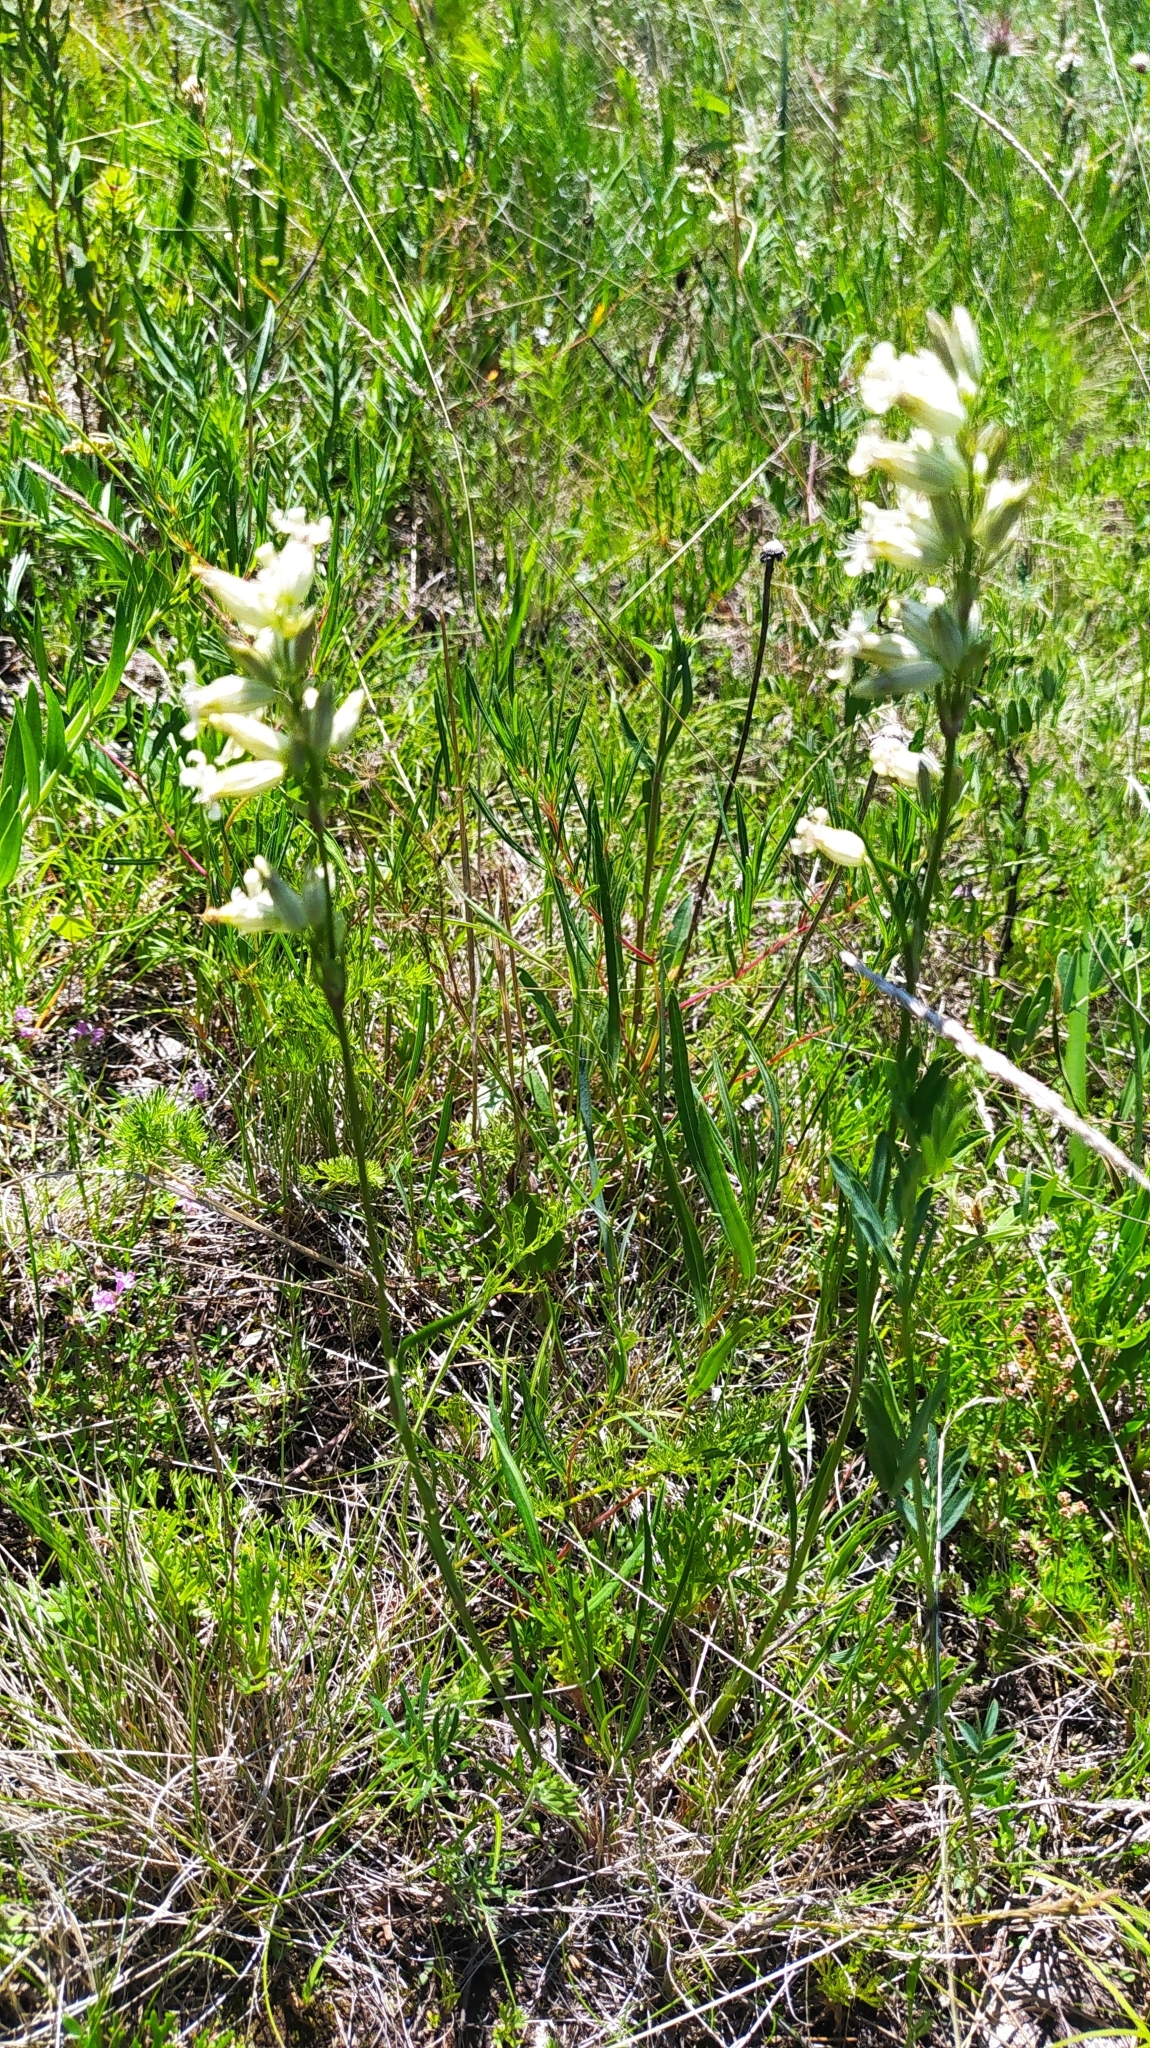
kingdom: Plantae
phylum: Tracheophyta
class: Magnoliopsida
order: Caryophyllales
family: Caryophyllaceae
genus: Silene
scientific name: Silene amoena
